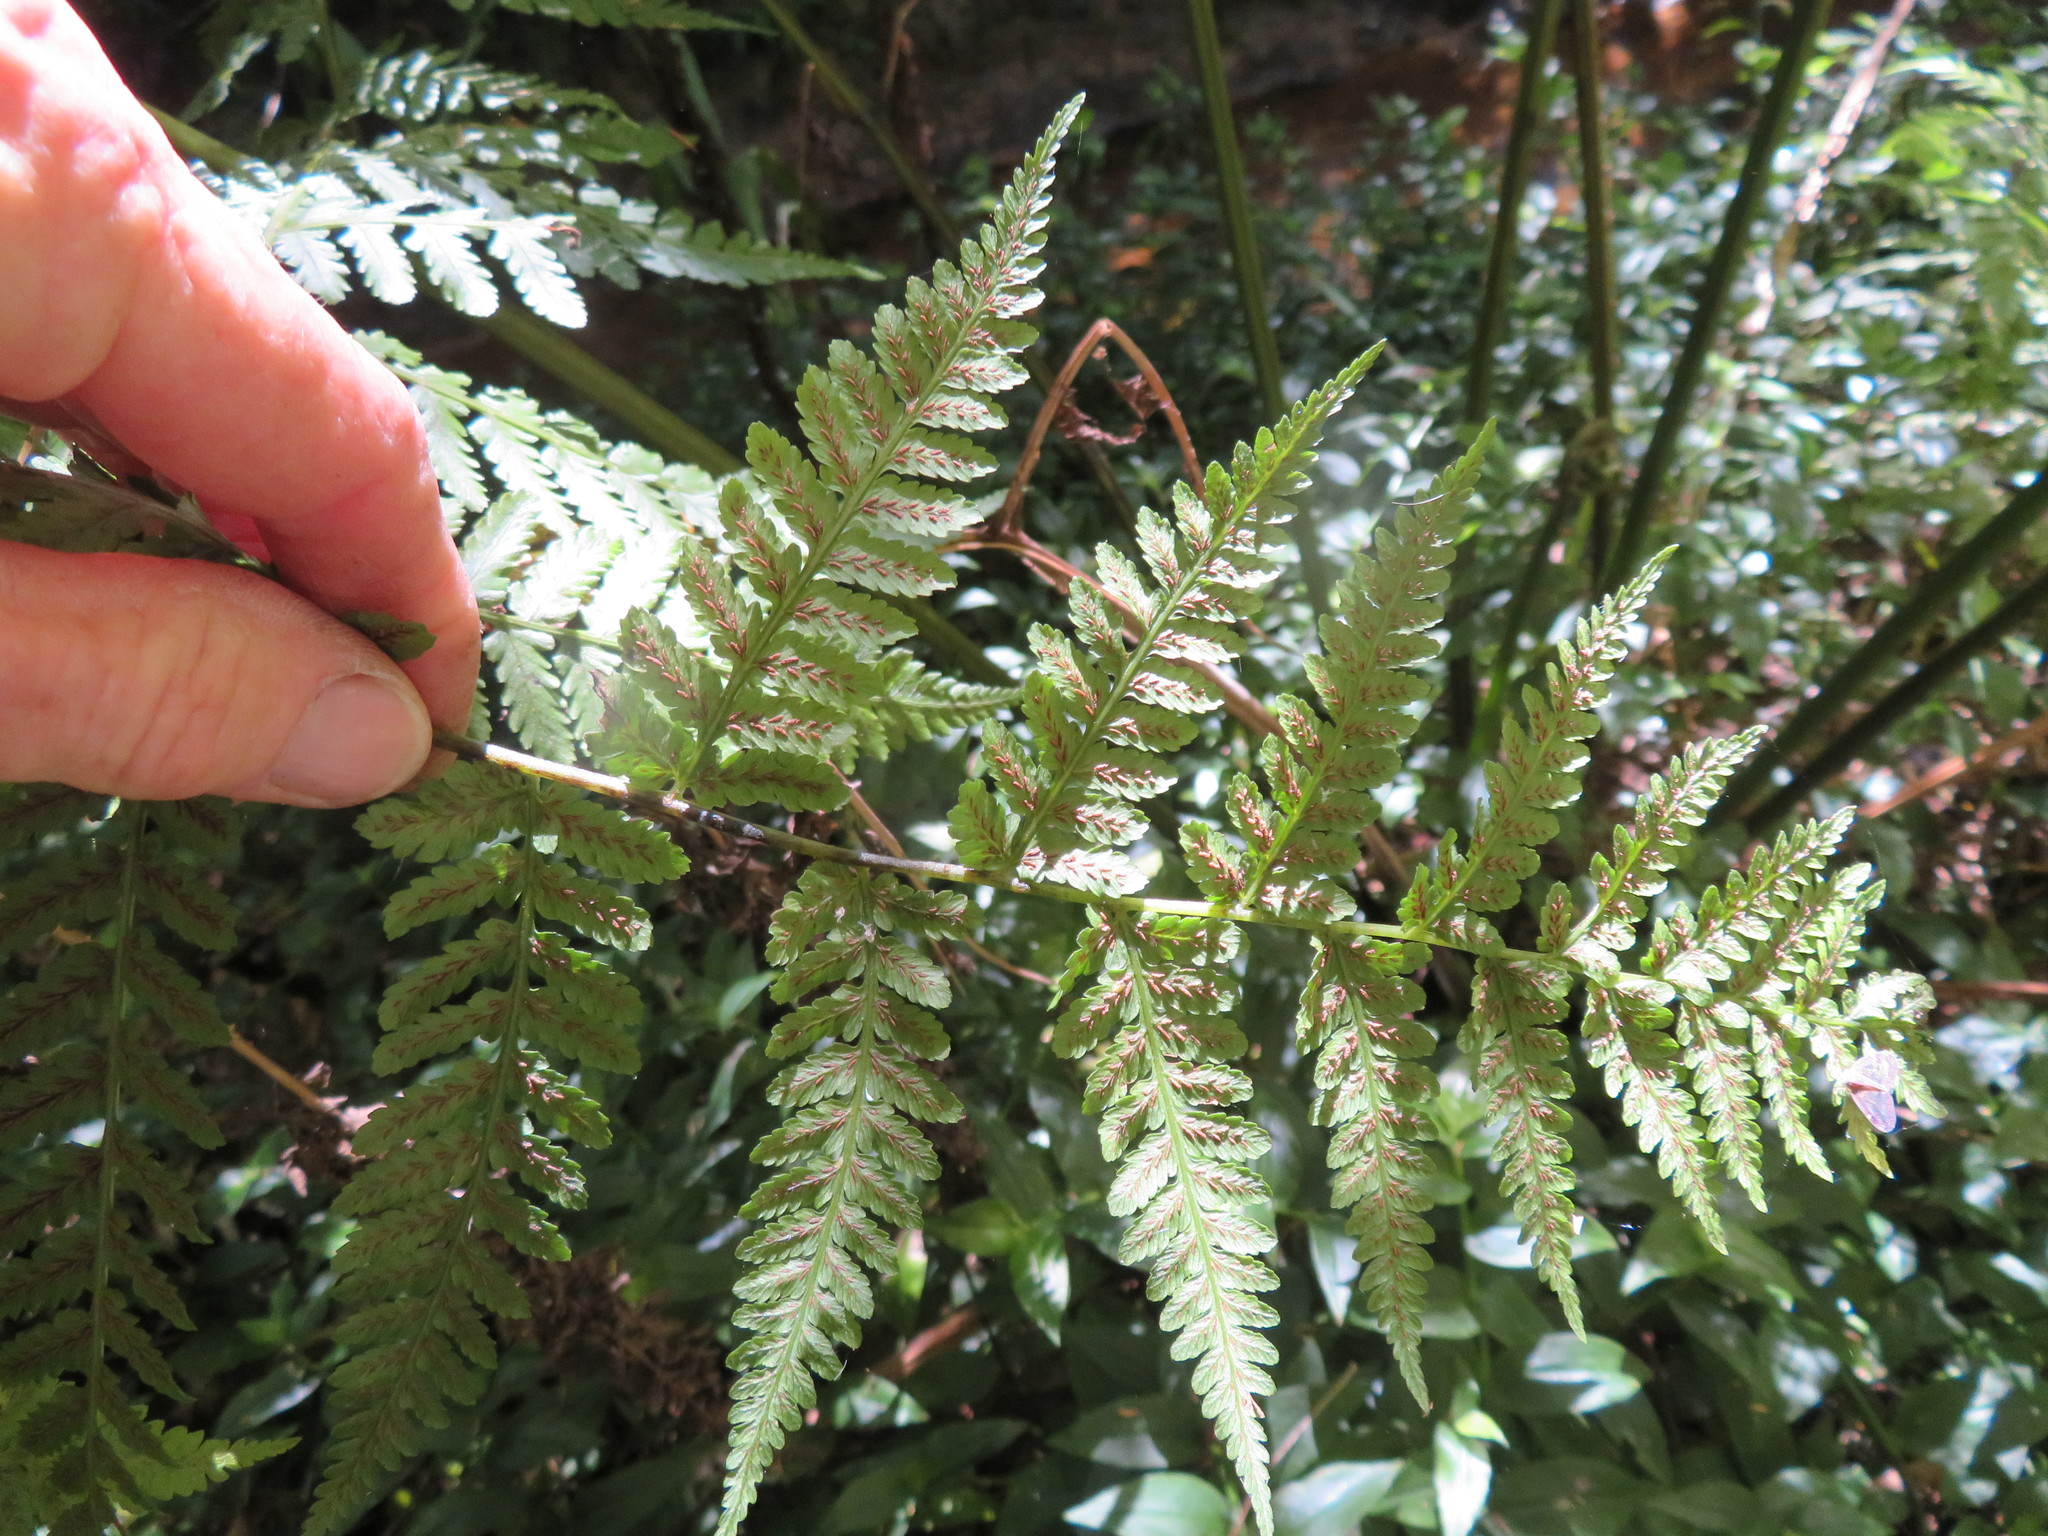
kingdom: Plantae
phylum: Tracheophyta
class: Polypodiopsida
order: Polypodiales
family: Athyriaceae
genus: Diplazium
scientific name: Diplazium australe
